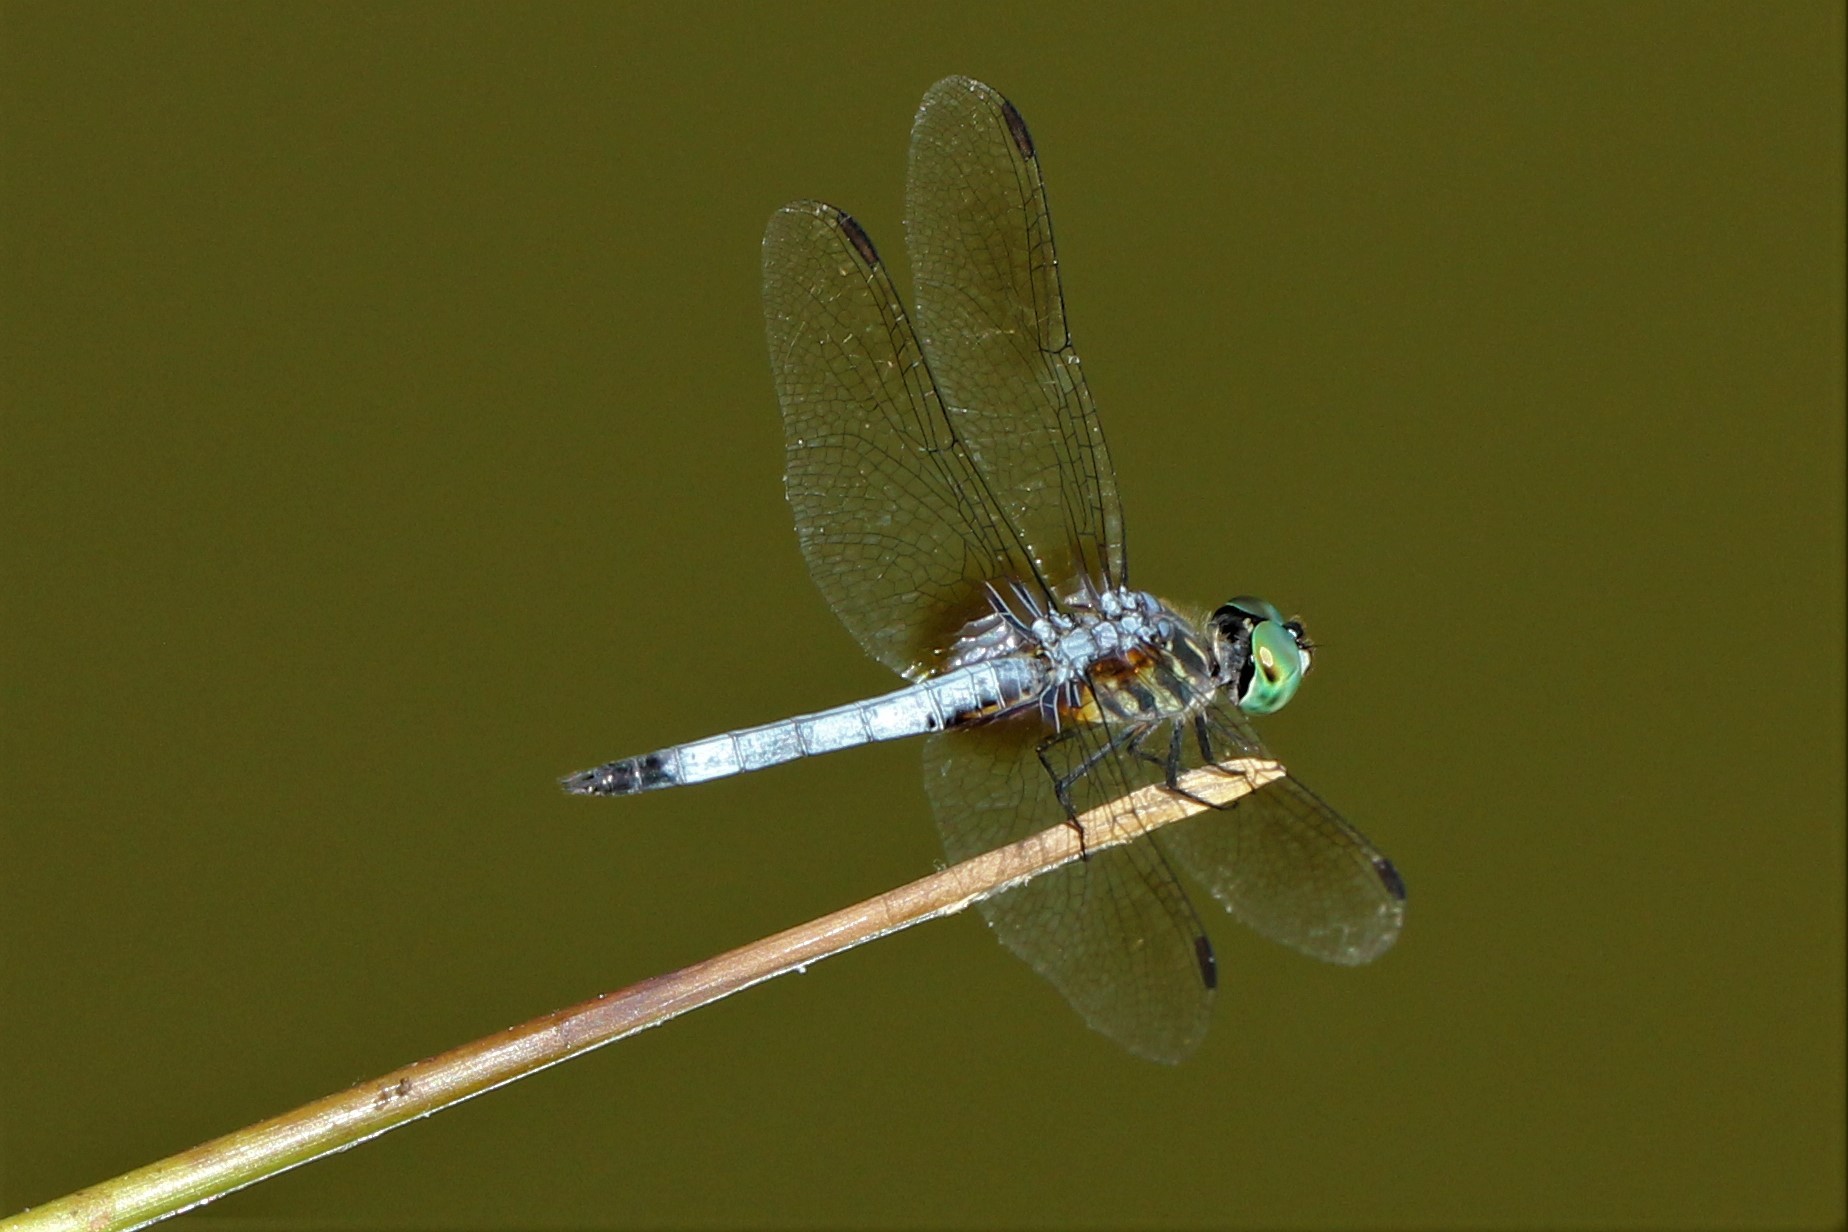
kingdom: Animalia
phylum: Arthropoda
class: Insecta
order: Odonata
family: Libellulidae
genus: Pachydiplax
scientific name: Pachydiplax longipennis
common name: Blue dasher
